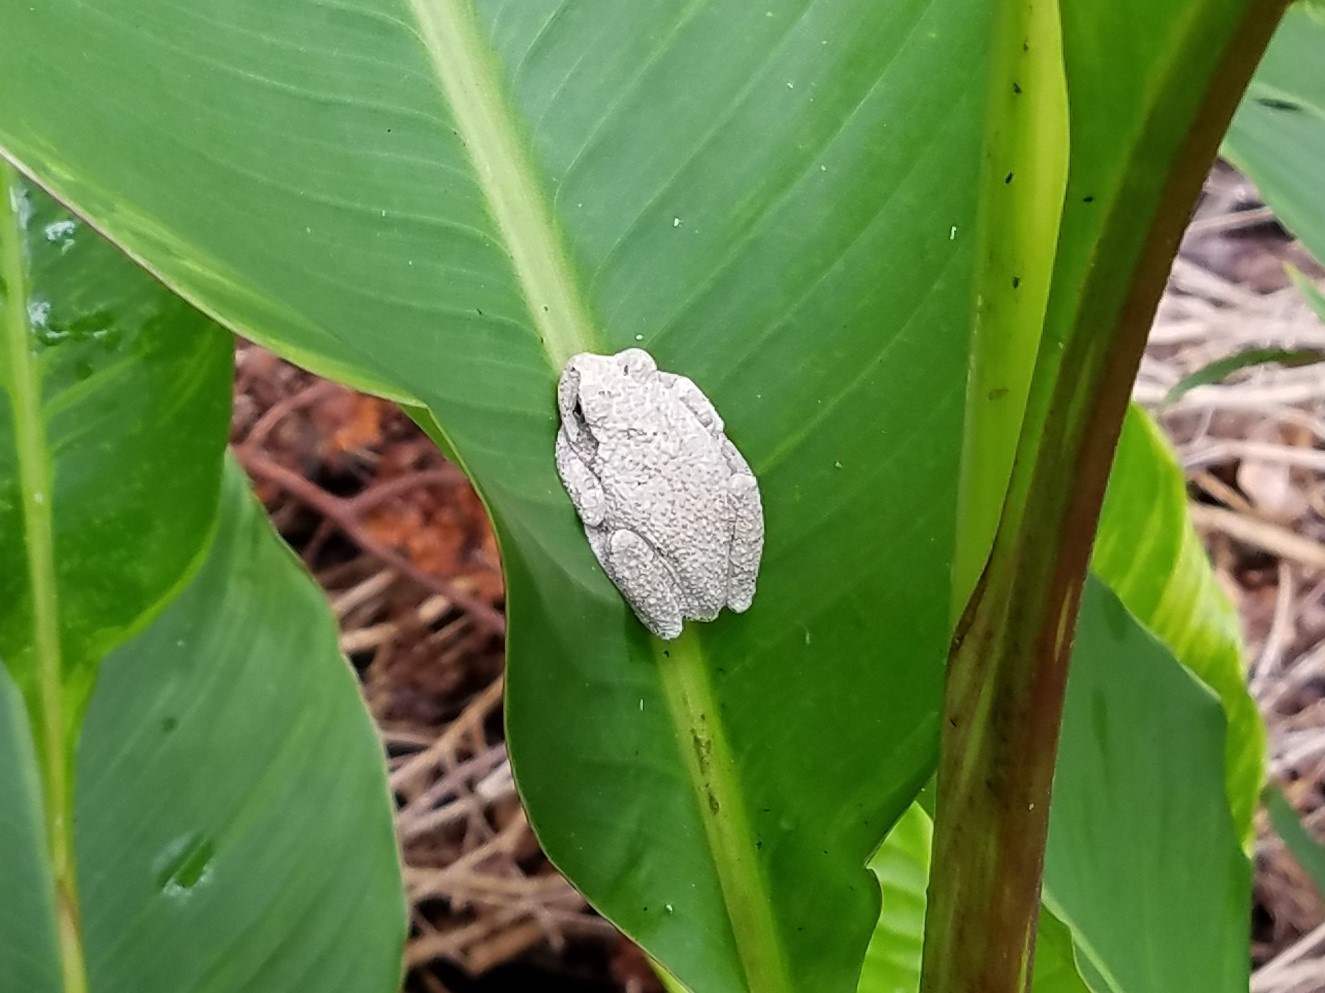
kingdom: Animalia
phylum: Chordata
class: Amphibia
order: Anura
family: Hylidae
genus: Dryophytes
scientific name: Dryophytes chrysoscelis
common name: Cope's gray treefrog
